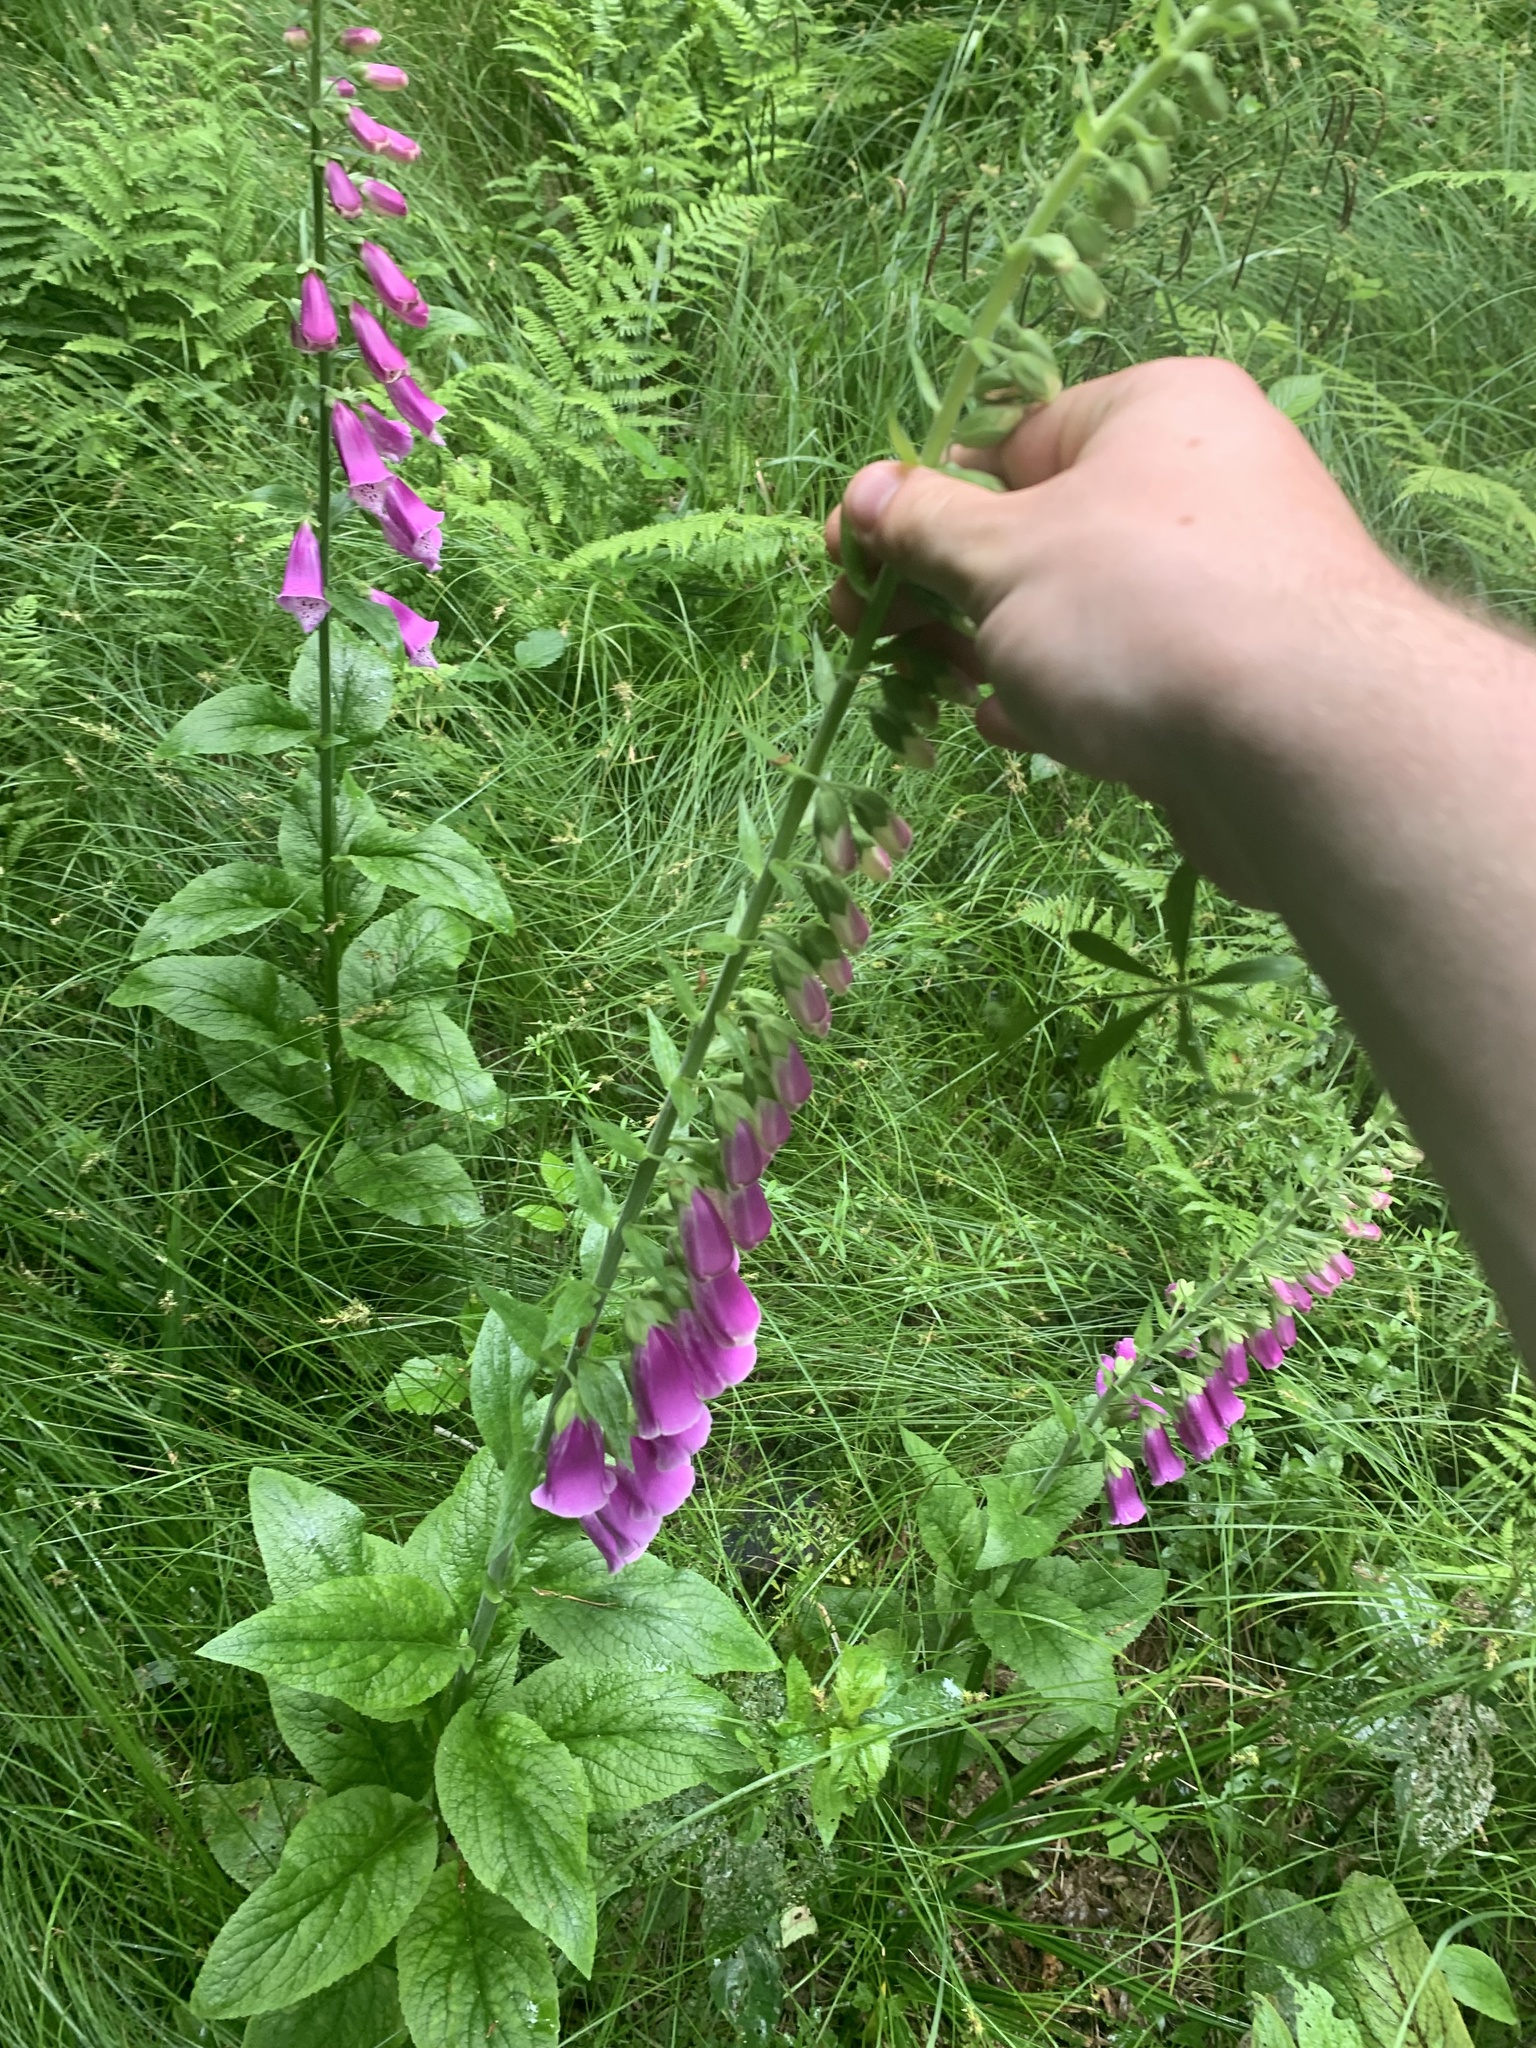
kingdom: Plantae
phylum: Tracheophyta
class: Magnoliopsida
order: Lamiales
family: Plantaginaceae
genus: Digitalis
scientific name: Digitalis purpurea
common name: Foxglove
